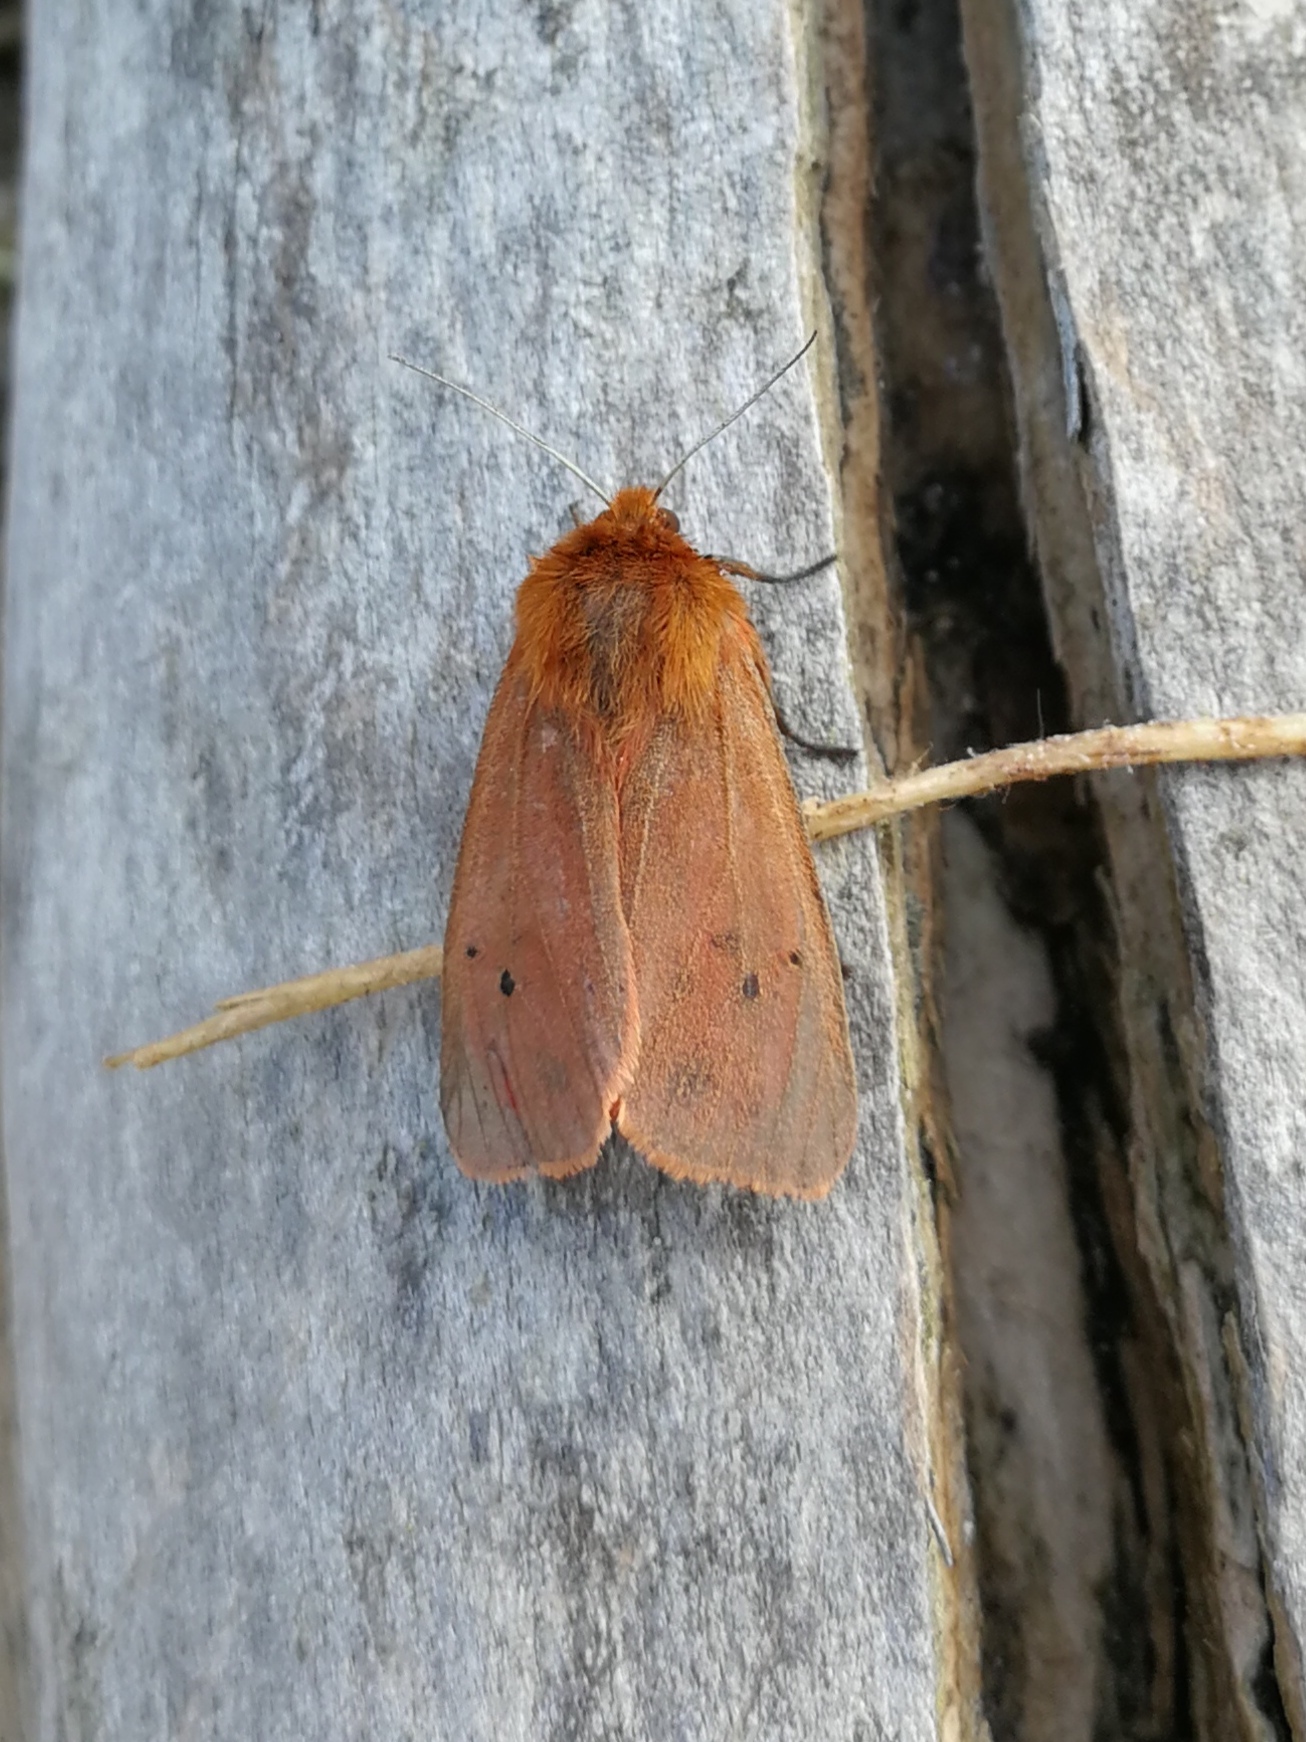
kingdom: Animalia
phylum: Arthropoda
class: Insecta
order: Lepidoptera
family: Erebidae
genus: Phragmatobia
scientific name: Phragmatobia fuliginosa
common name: Ruby tiger
